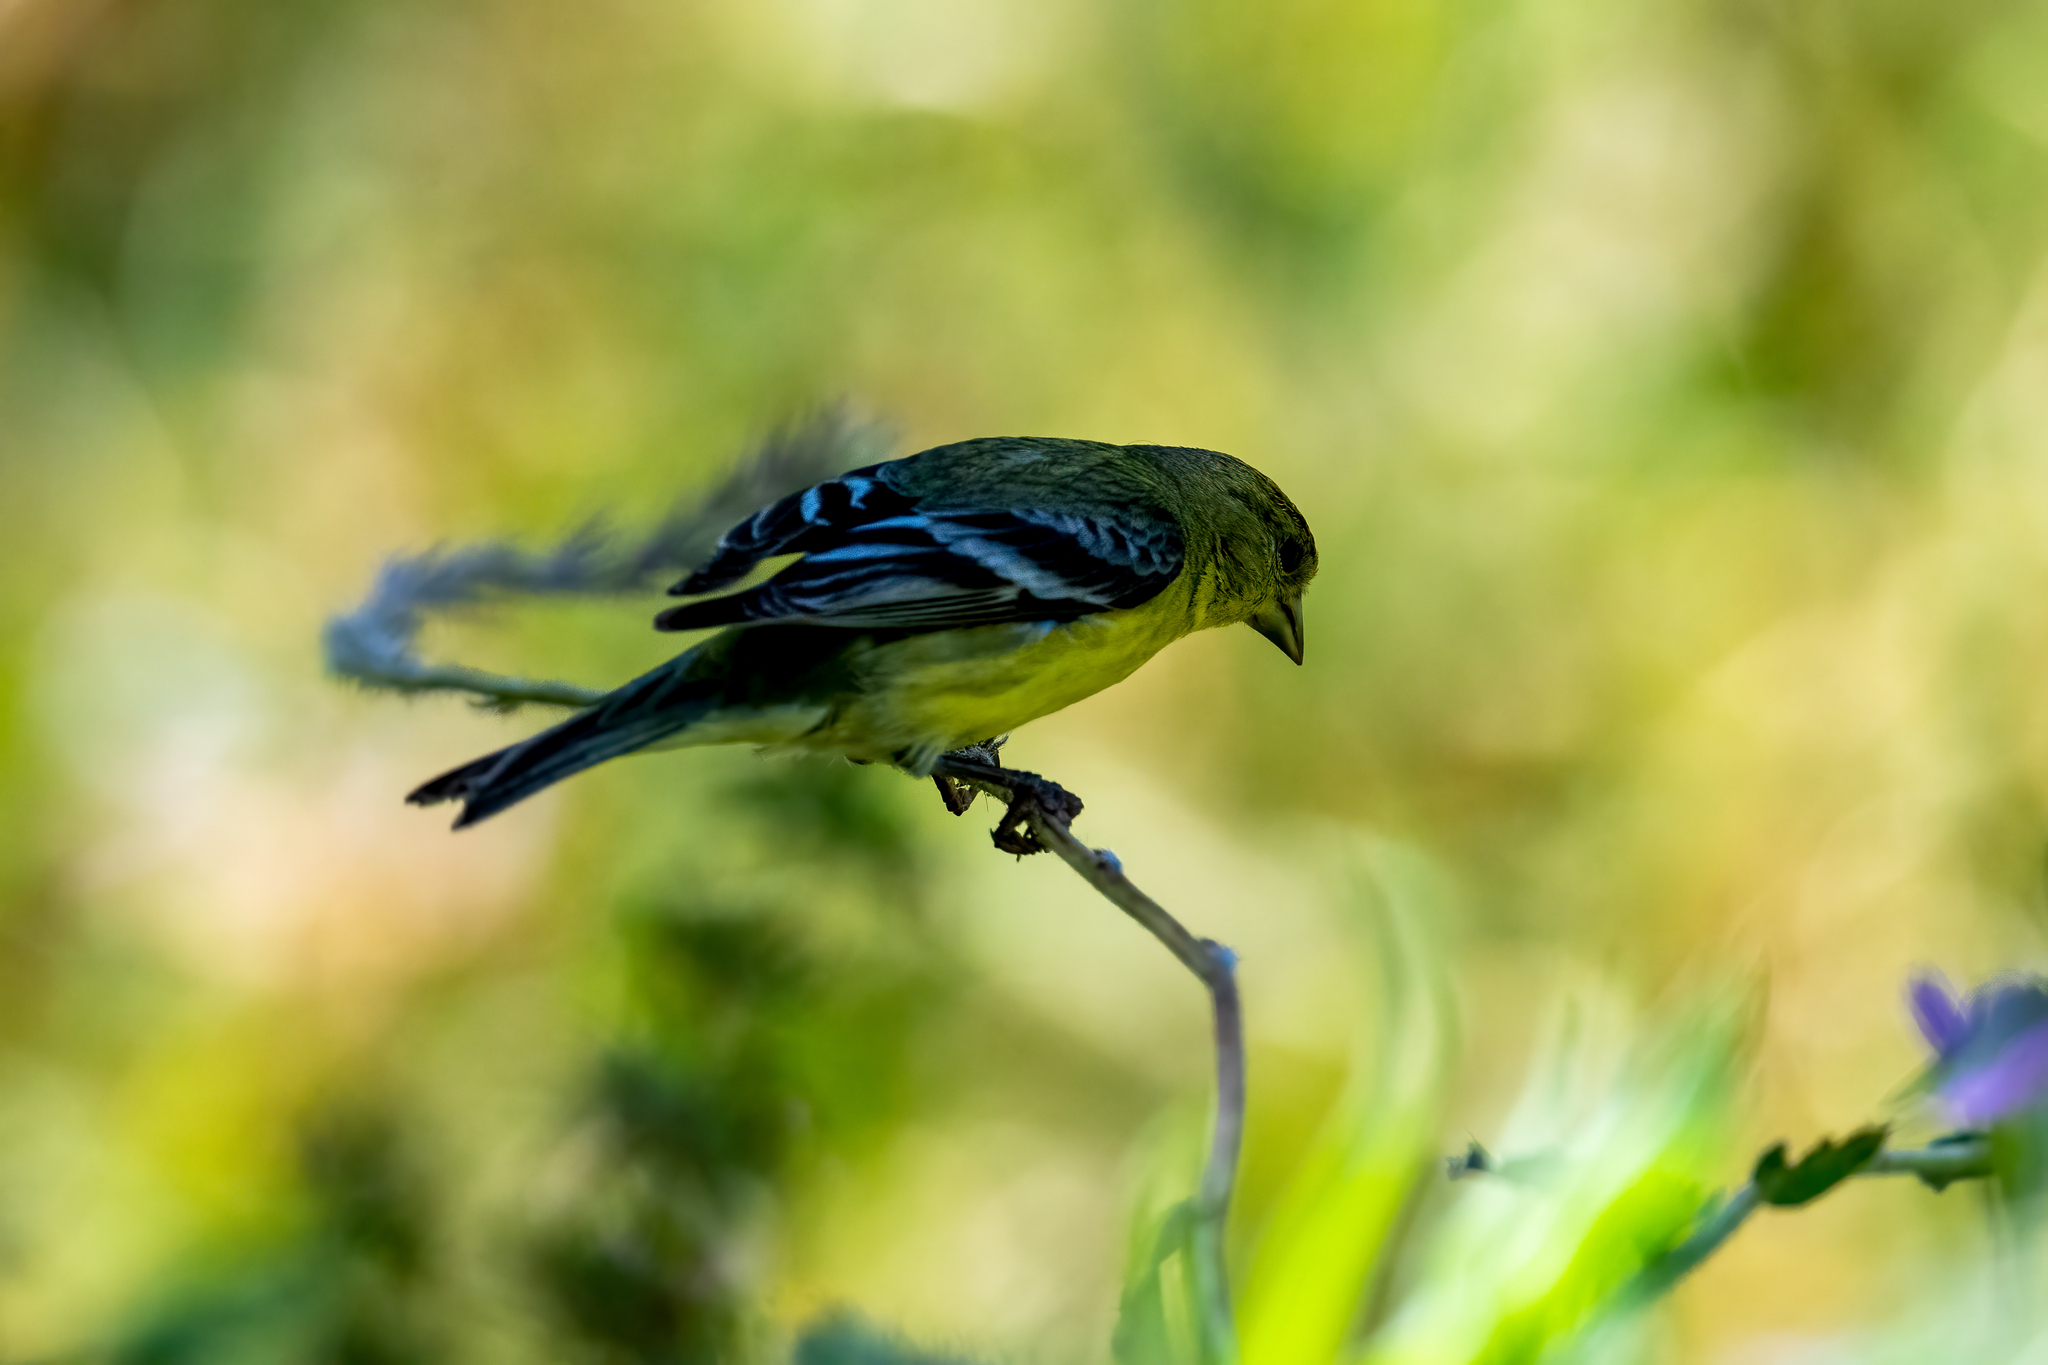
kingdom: Animalia
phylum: Chordata
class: Aves
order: Passeriformes
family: Fringillidae
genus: Spinus
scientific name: Spinus psaltria
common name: Lesser goldfinch
